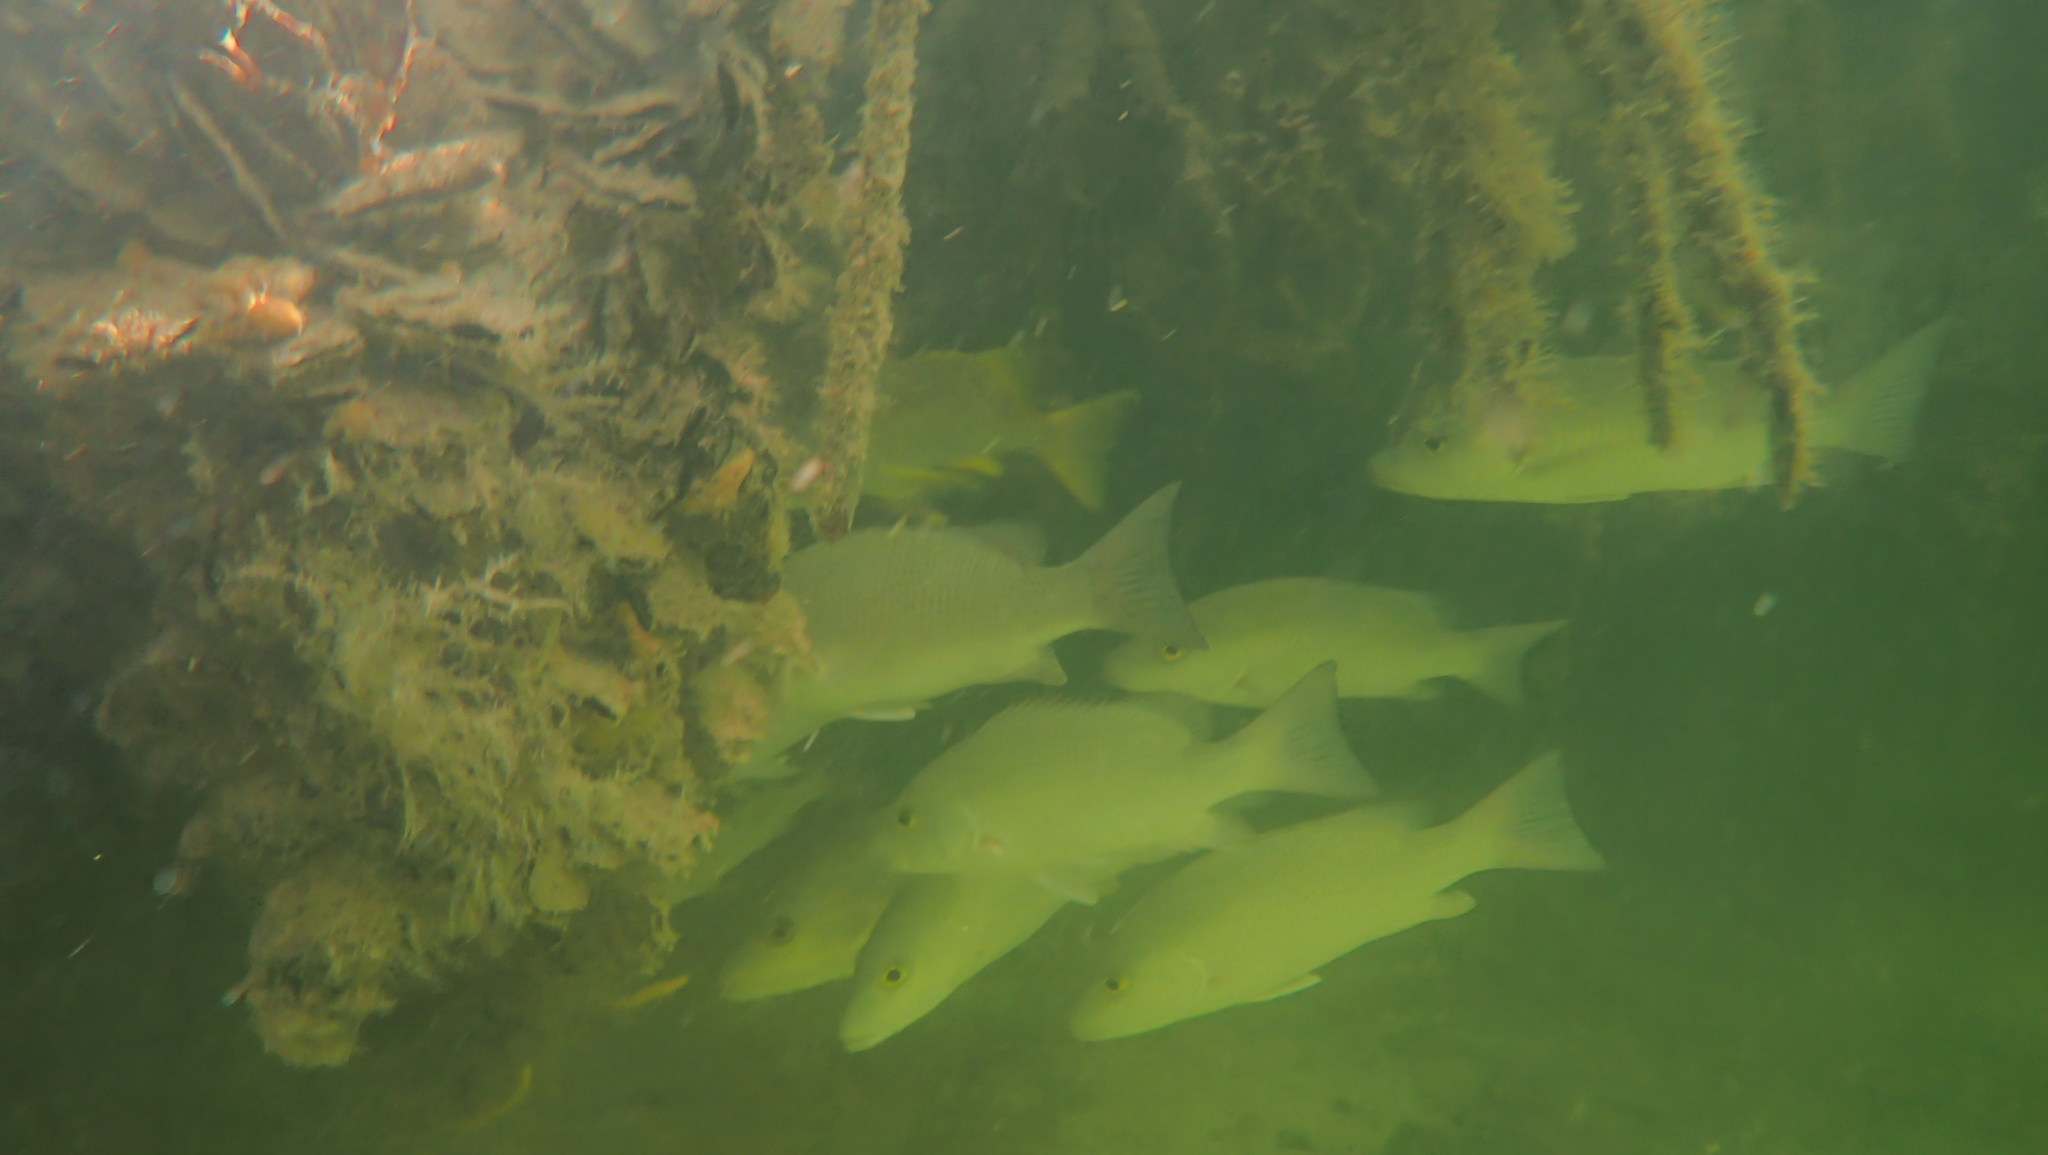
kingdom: Animalia
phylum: Chordata
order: Perciformes
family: Lutjanidae
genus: Lutjanus
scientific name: Lutjanus griseus
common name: Gray snapper
